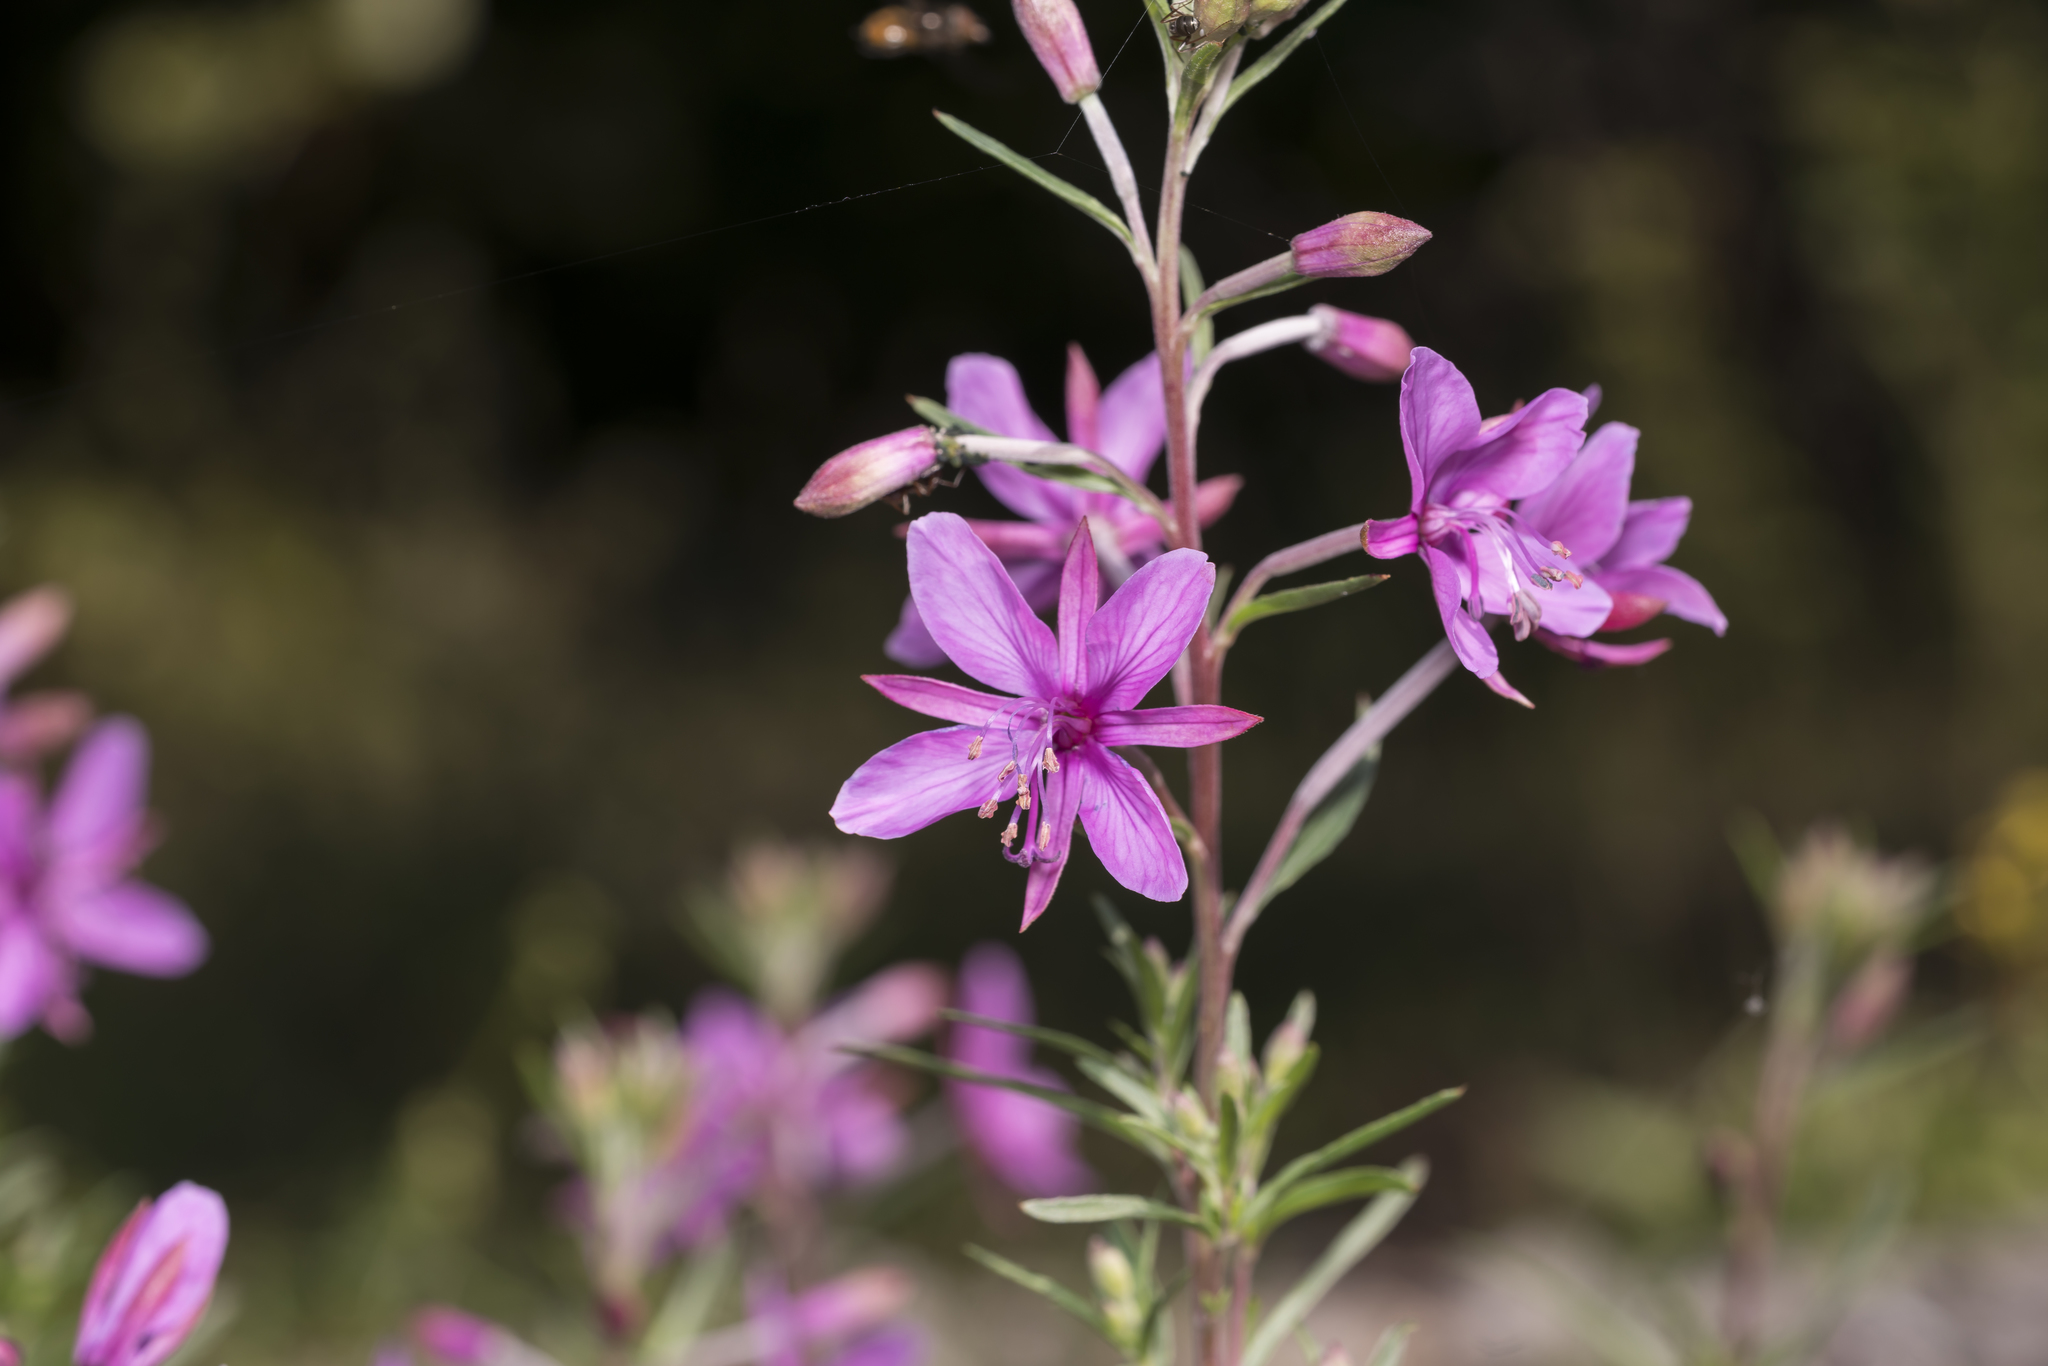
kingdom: Plantae
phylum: Tracheophyta
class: Magnoliopsida
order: Myrtales
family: Onagraceae
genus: Chamaenerion
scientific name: Chamaenerion dodonaei
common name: Rosemary-leaved willowherb
